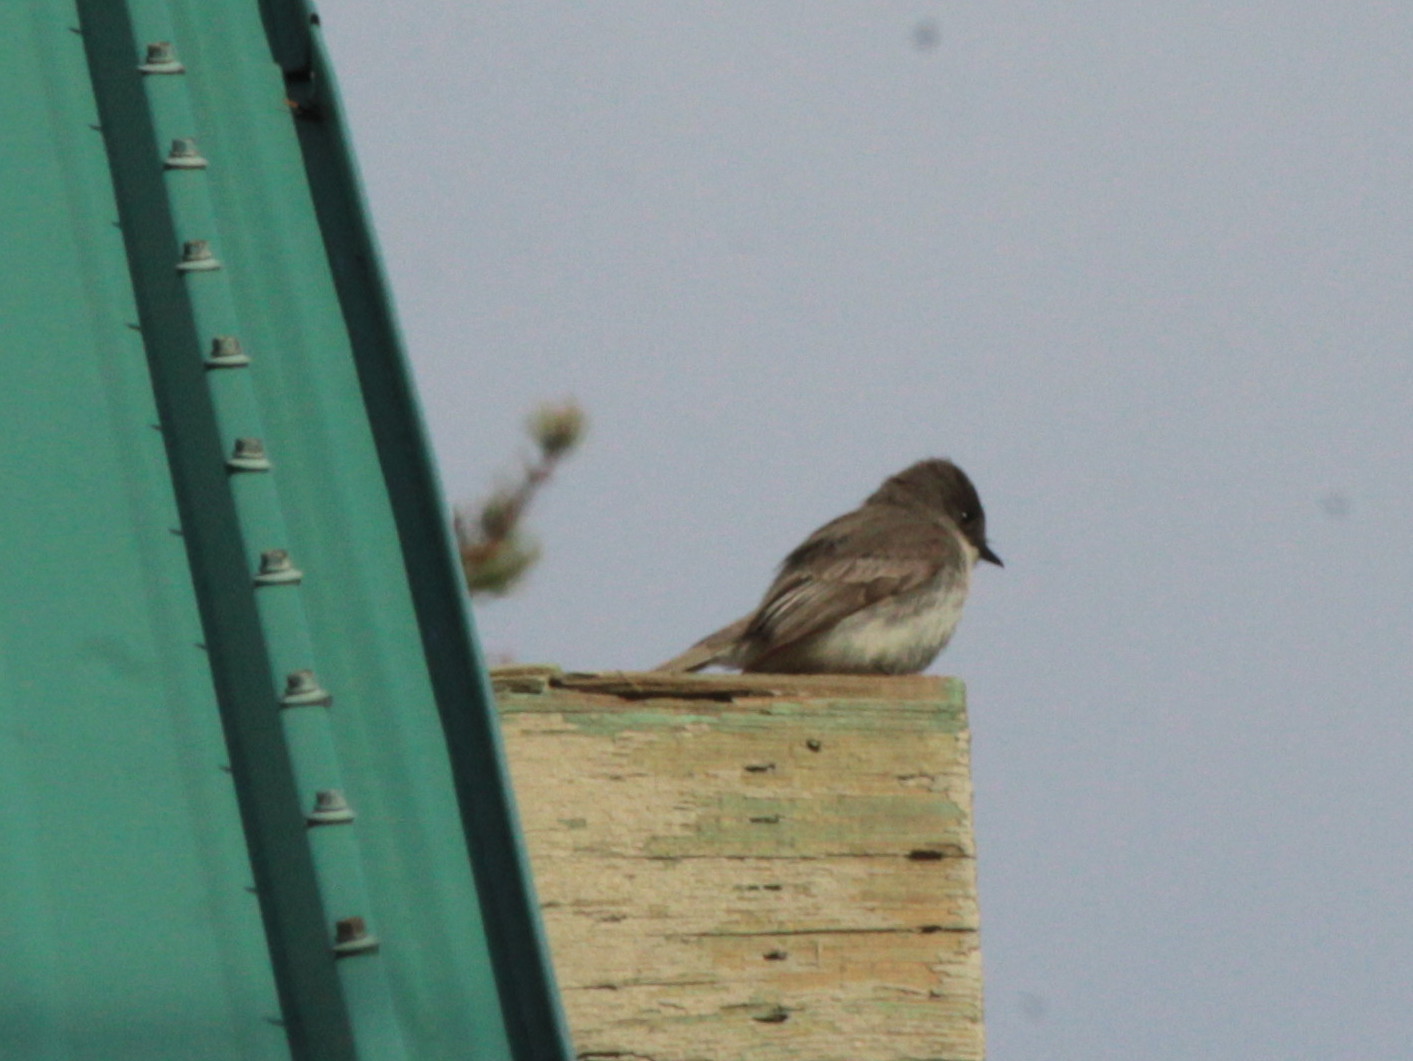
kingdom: Animalia
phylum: Chordata
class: Aves
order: Passeriformes
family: Tyrannidae
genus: Sayornis
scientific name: Sayornis phoebe
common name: Eastern phoebe
